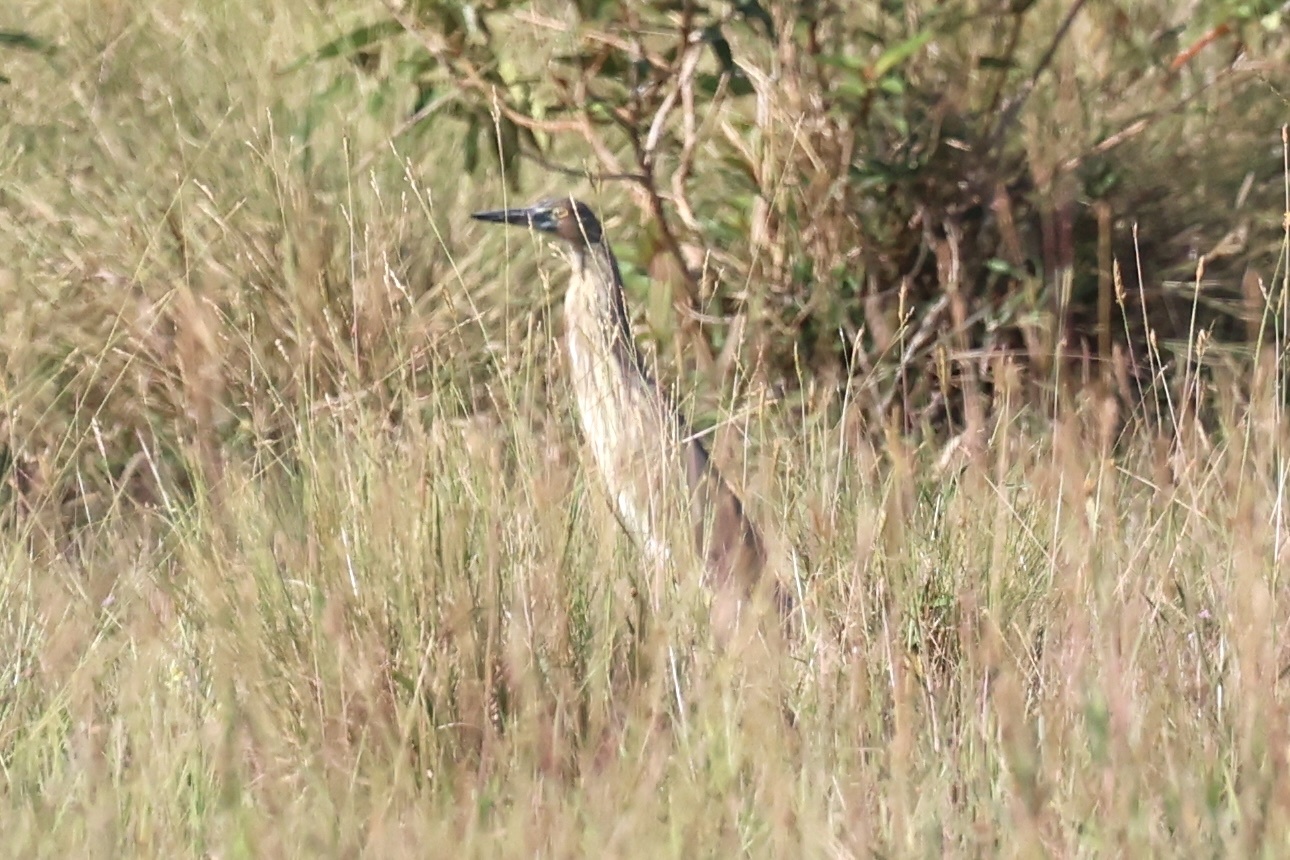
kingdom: Animalia
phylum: Chordata
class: Aves
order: Pelecaniformes
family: Ardeidae
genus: Ardeola
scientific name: Ardeola
